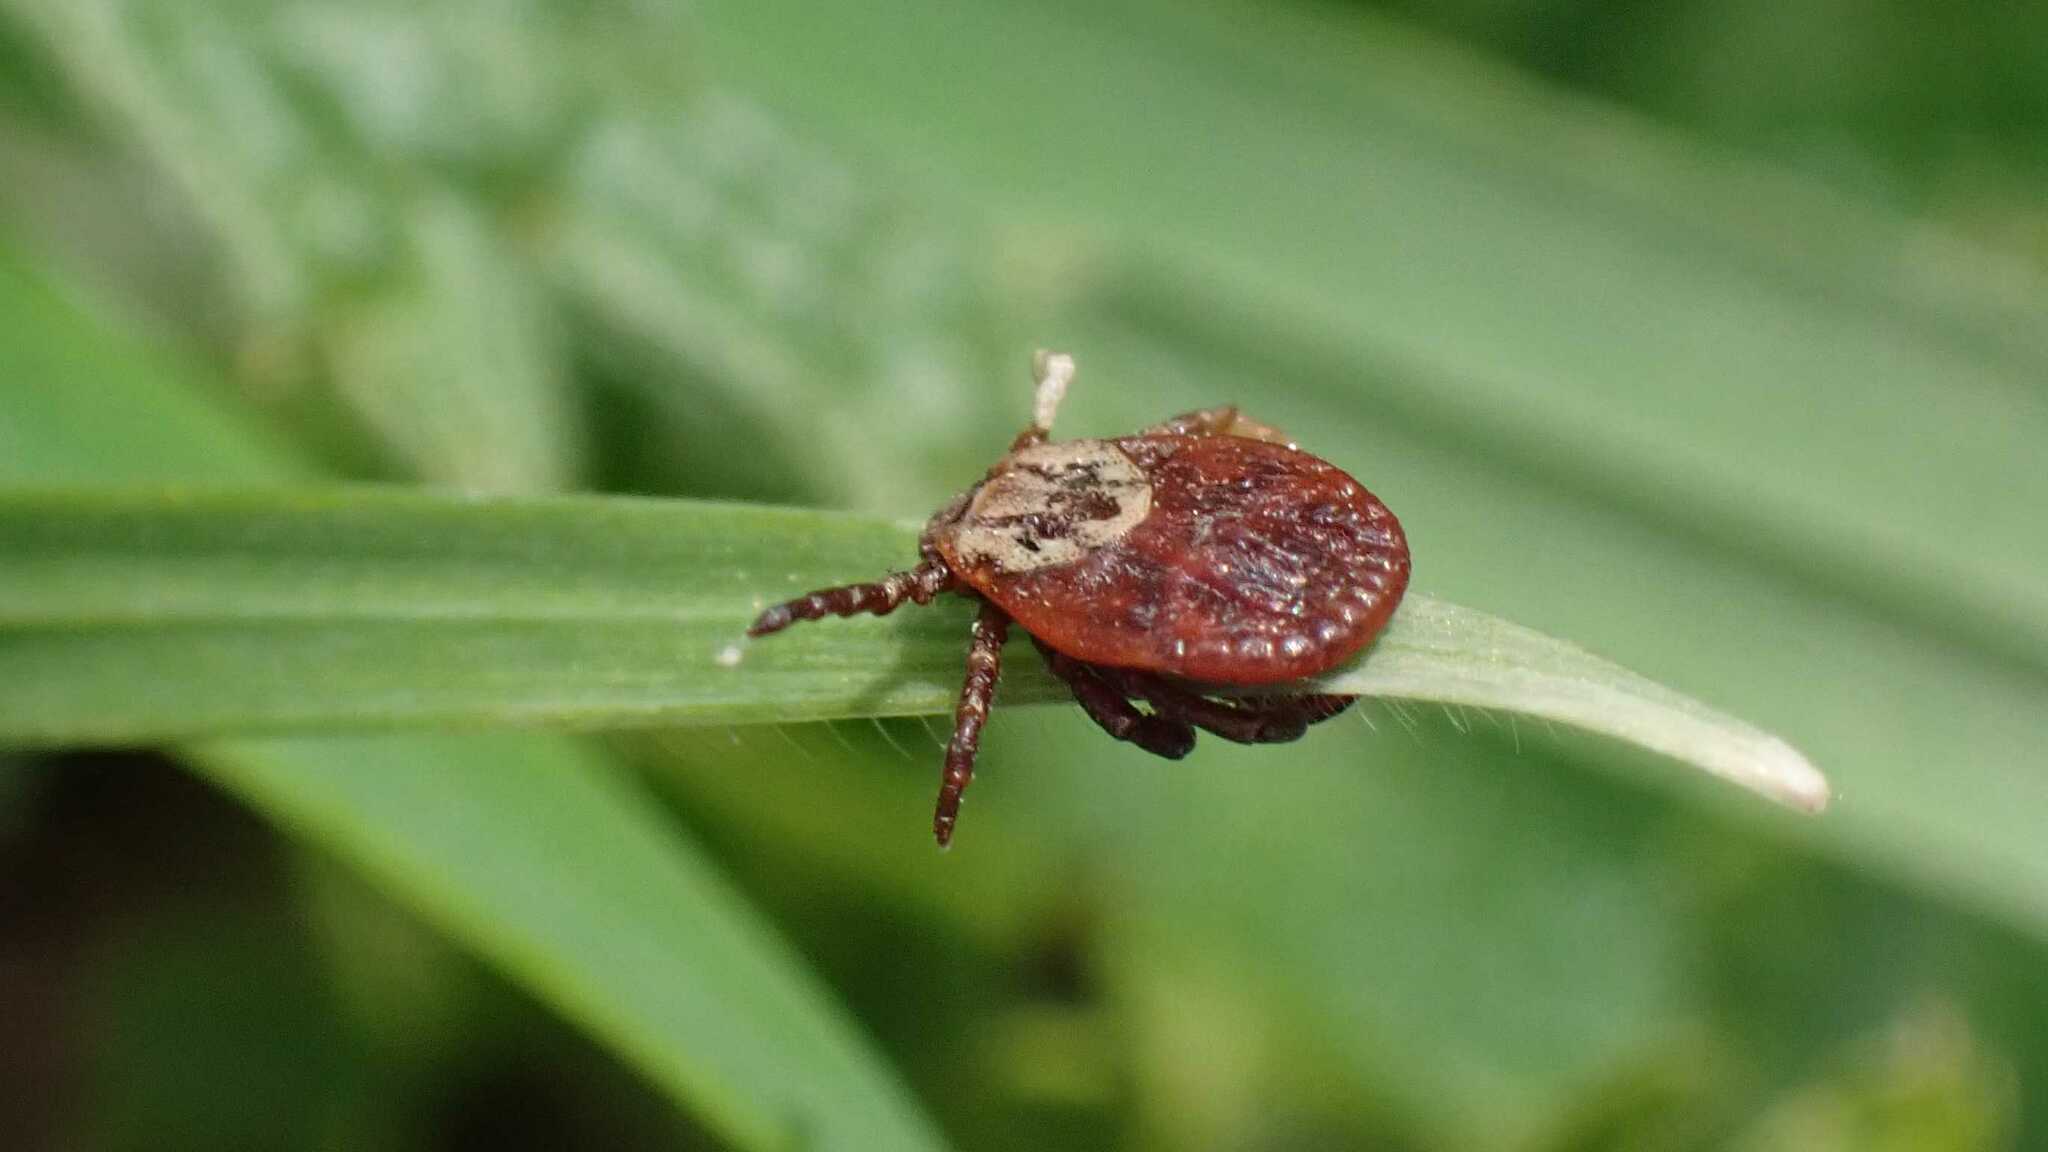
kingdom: Animalia
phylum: Arthropoda
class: Arachnida
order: Ixodida
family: Ixodidae
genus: Dermacentor
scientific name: Dermacentor reticulatus
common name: Ornate cow tick
